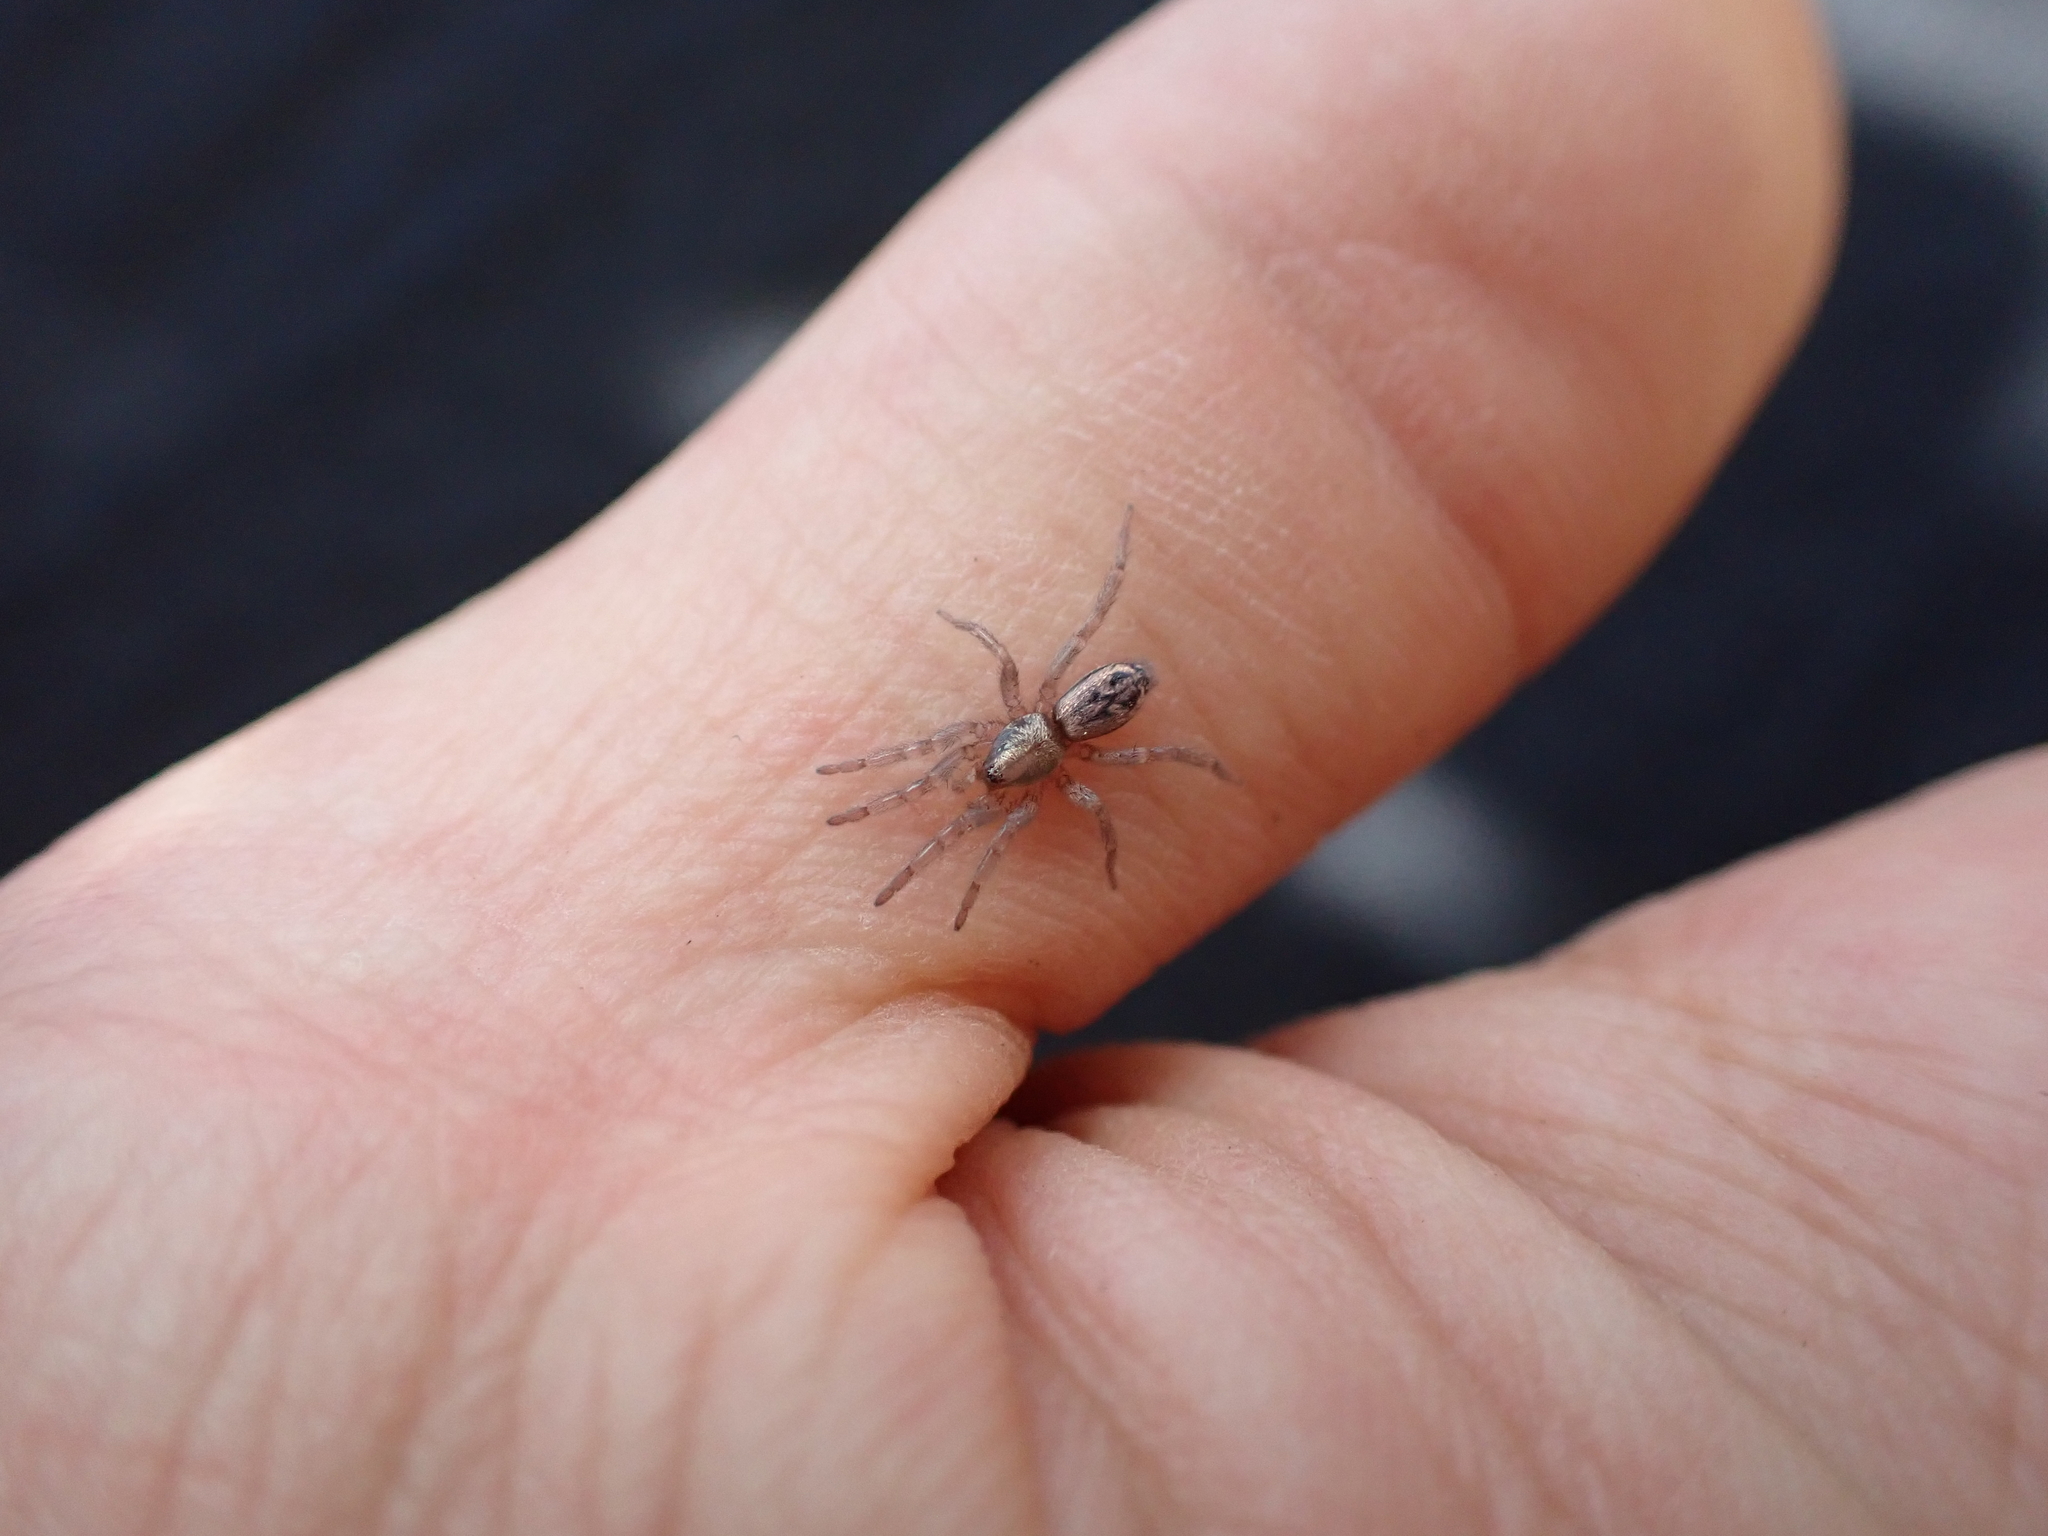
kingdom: Animalia
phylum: Arthropoda
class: Arachnida
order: Araneae
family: Gnaphosidae
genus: Scotophaeus
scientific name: Scotophaeus pretiosus
